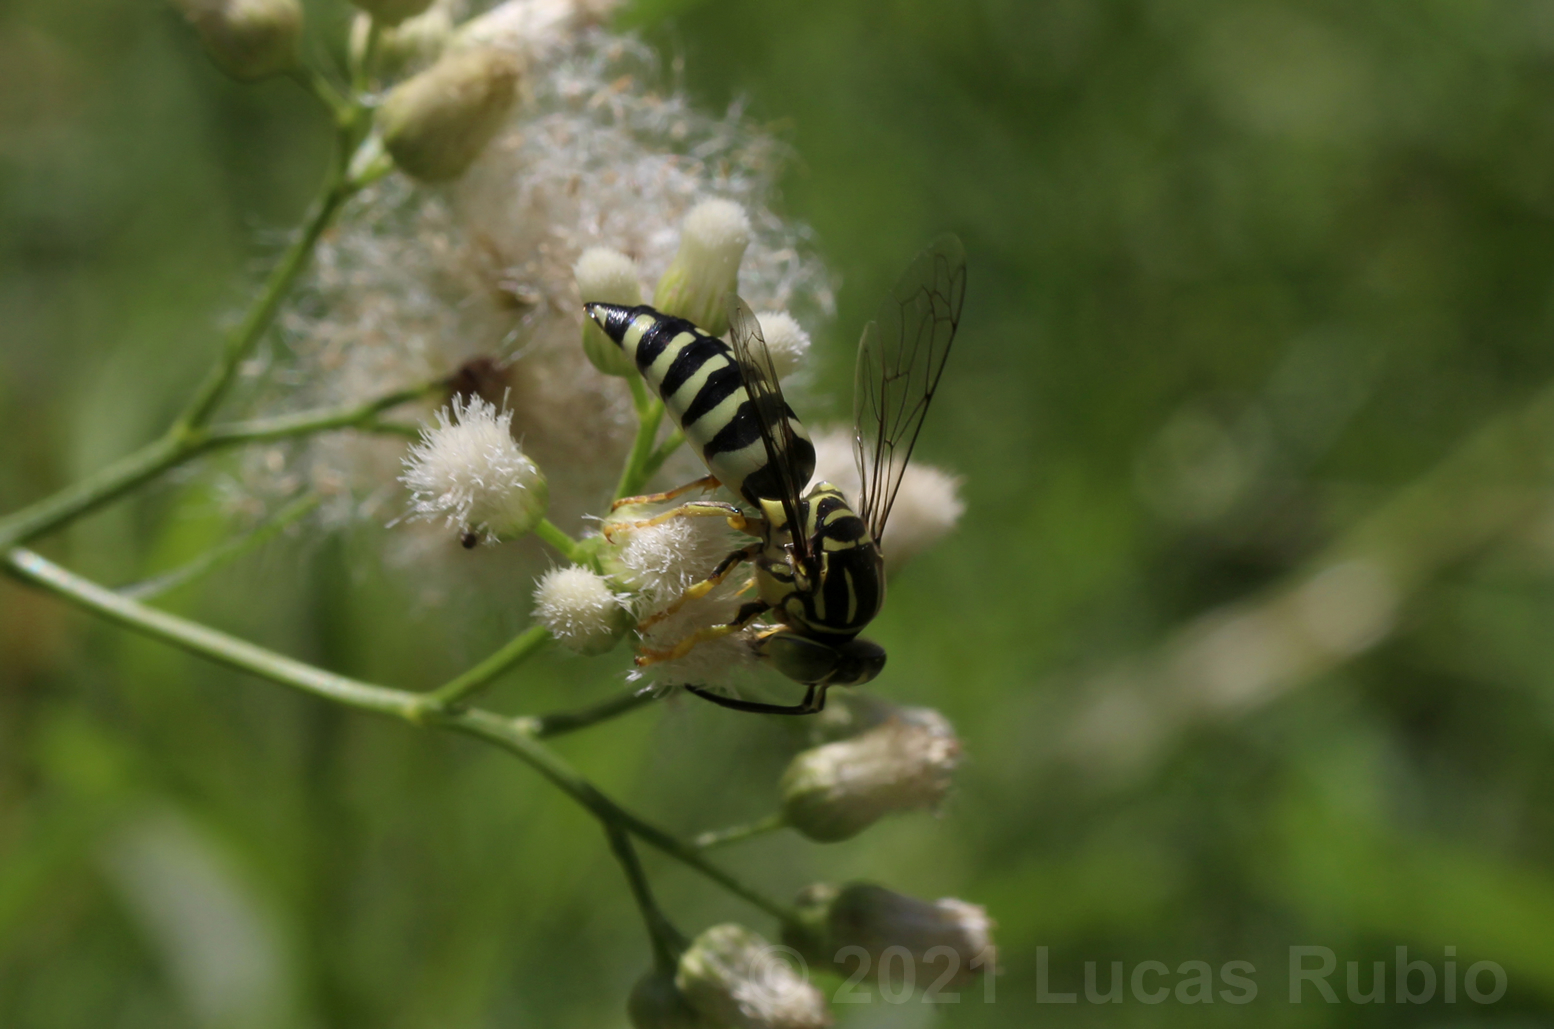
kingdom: Animalia
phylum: Arthropoda
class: Insecta
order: Hymenoptera
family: Crabronidae
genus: Bicyrtes
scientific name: Bicyrtes variegatus
